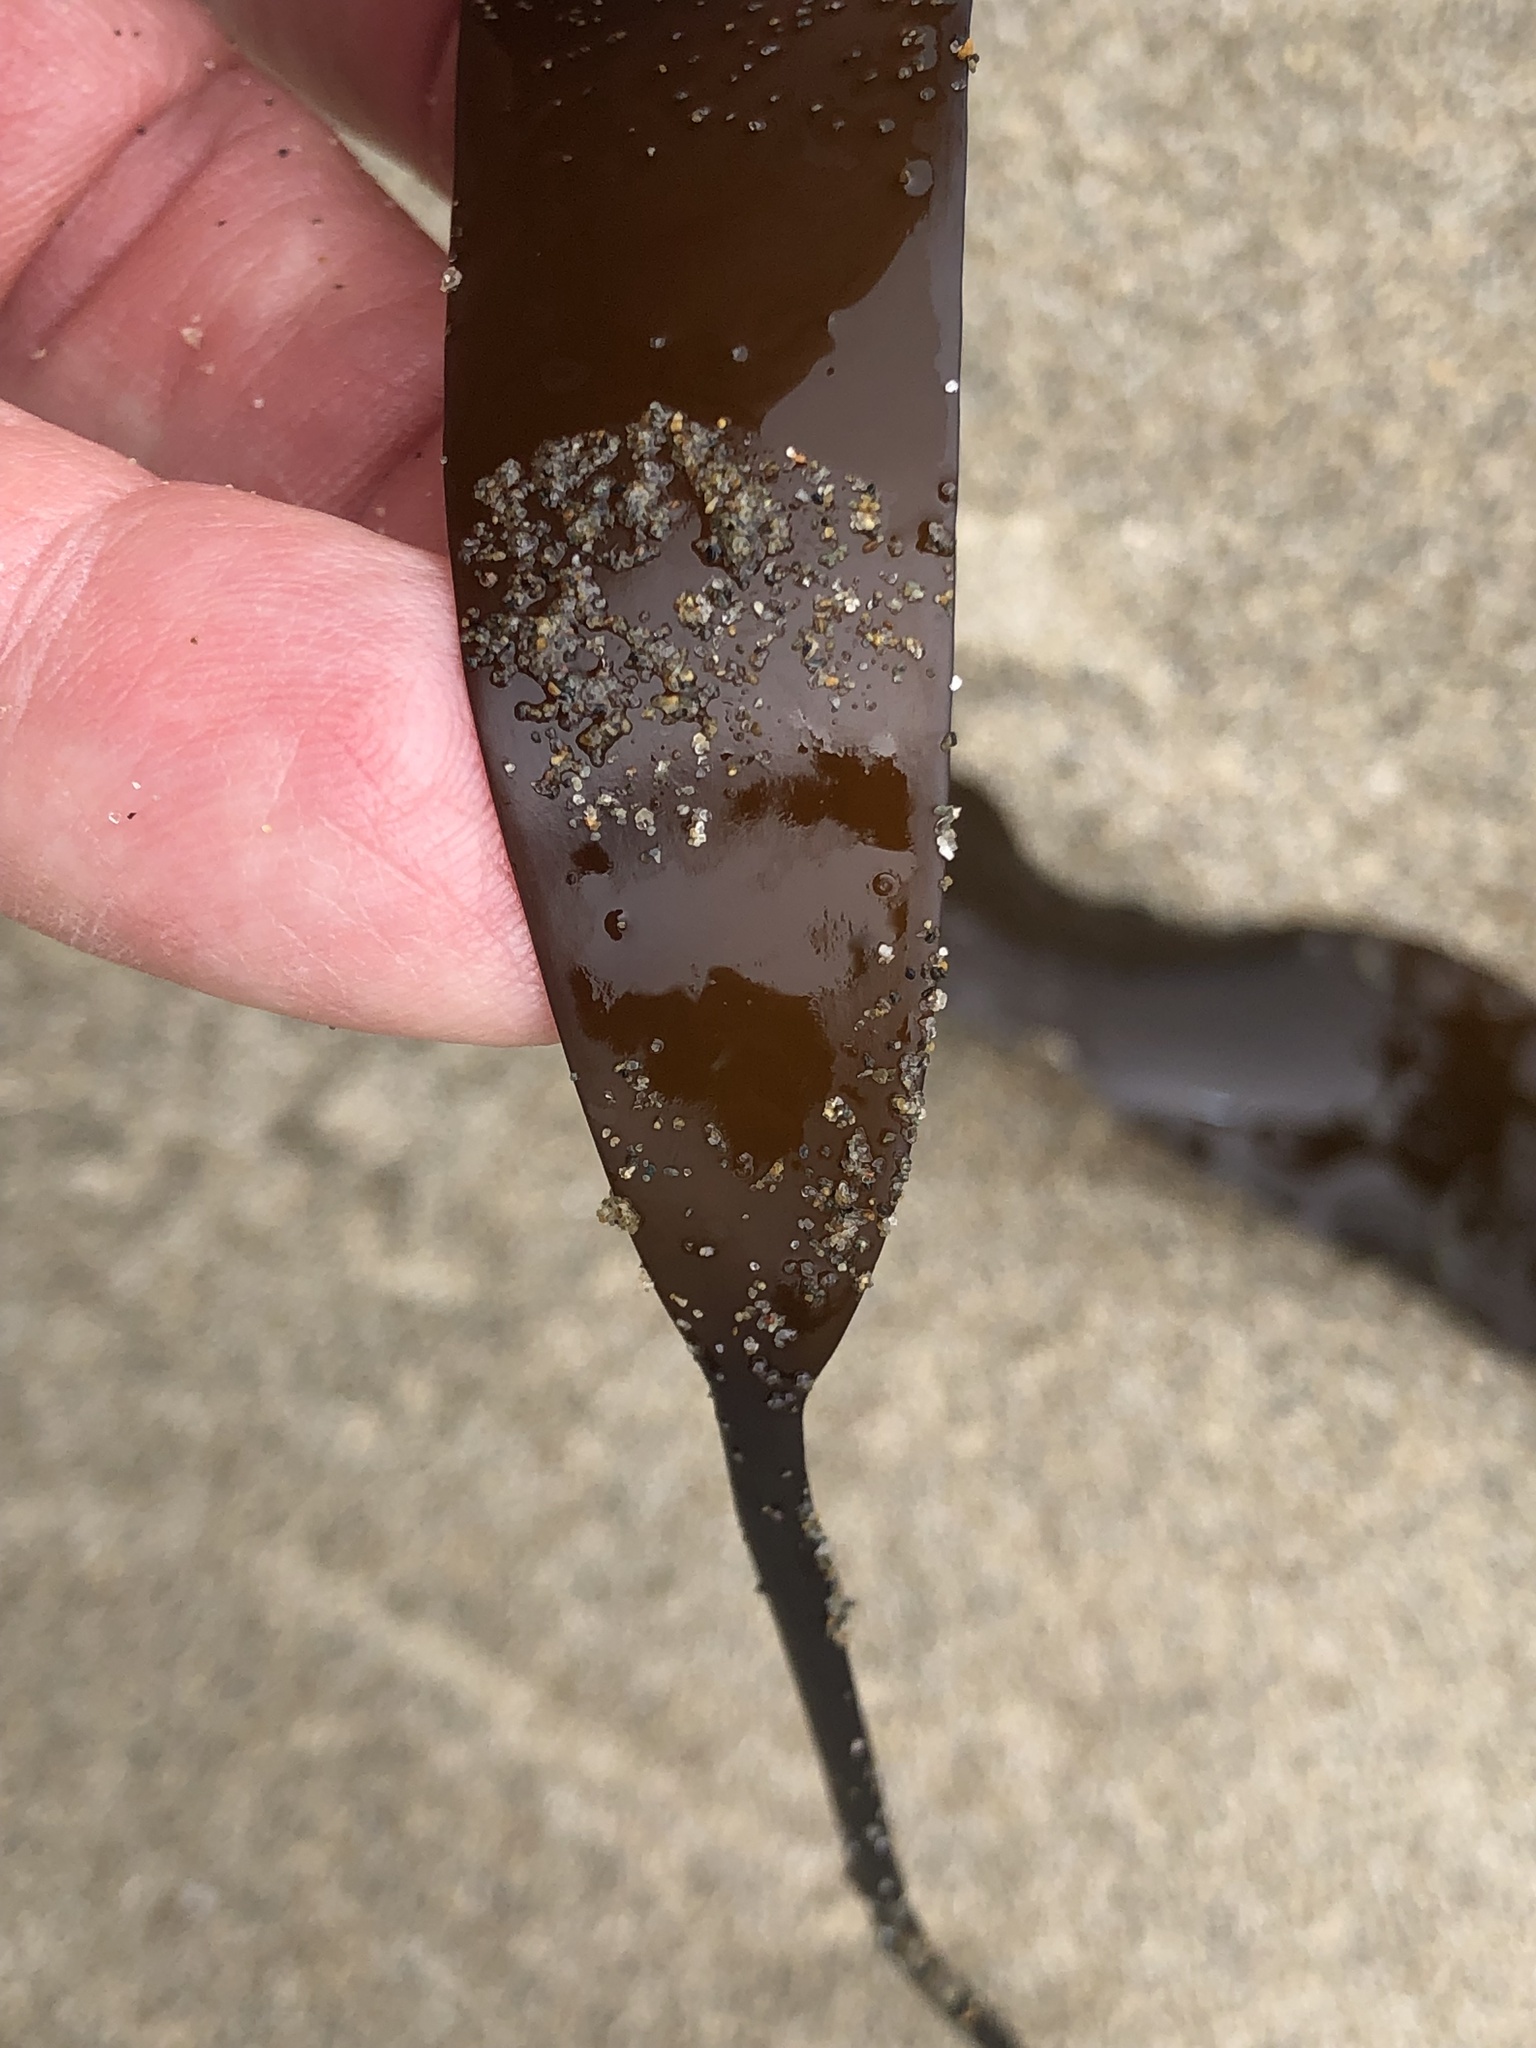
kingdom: Chromista
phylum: Ochrophyta
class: Phaeophyceae
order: Laminariales
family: Laminariaceae
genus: Laminaria
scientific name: Laminaria sinclairii
